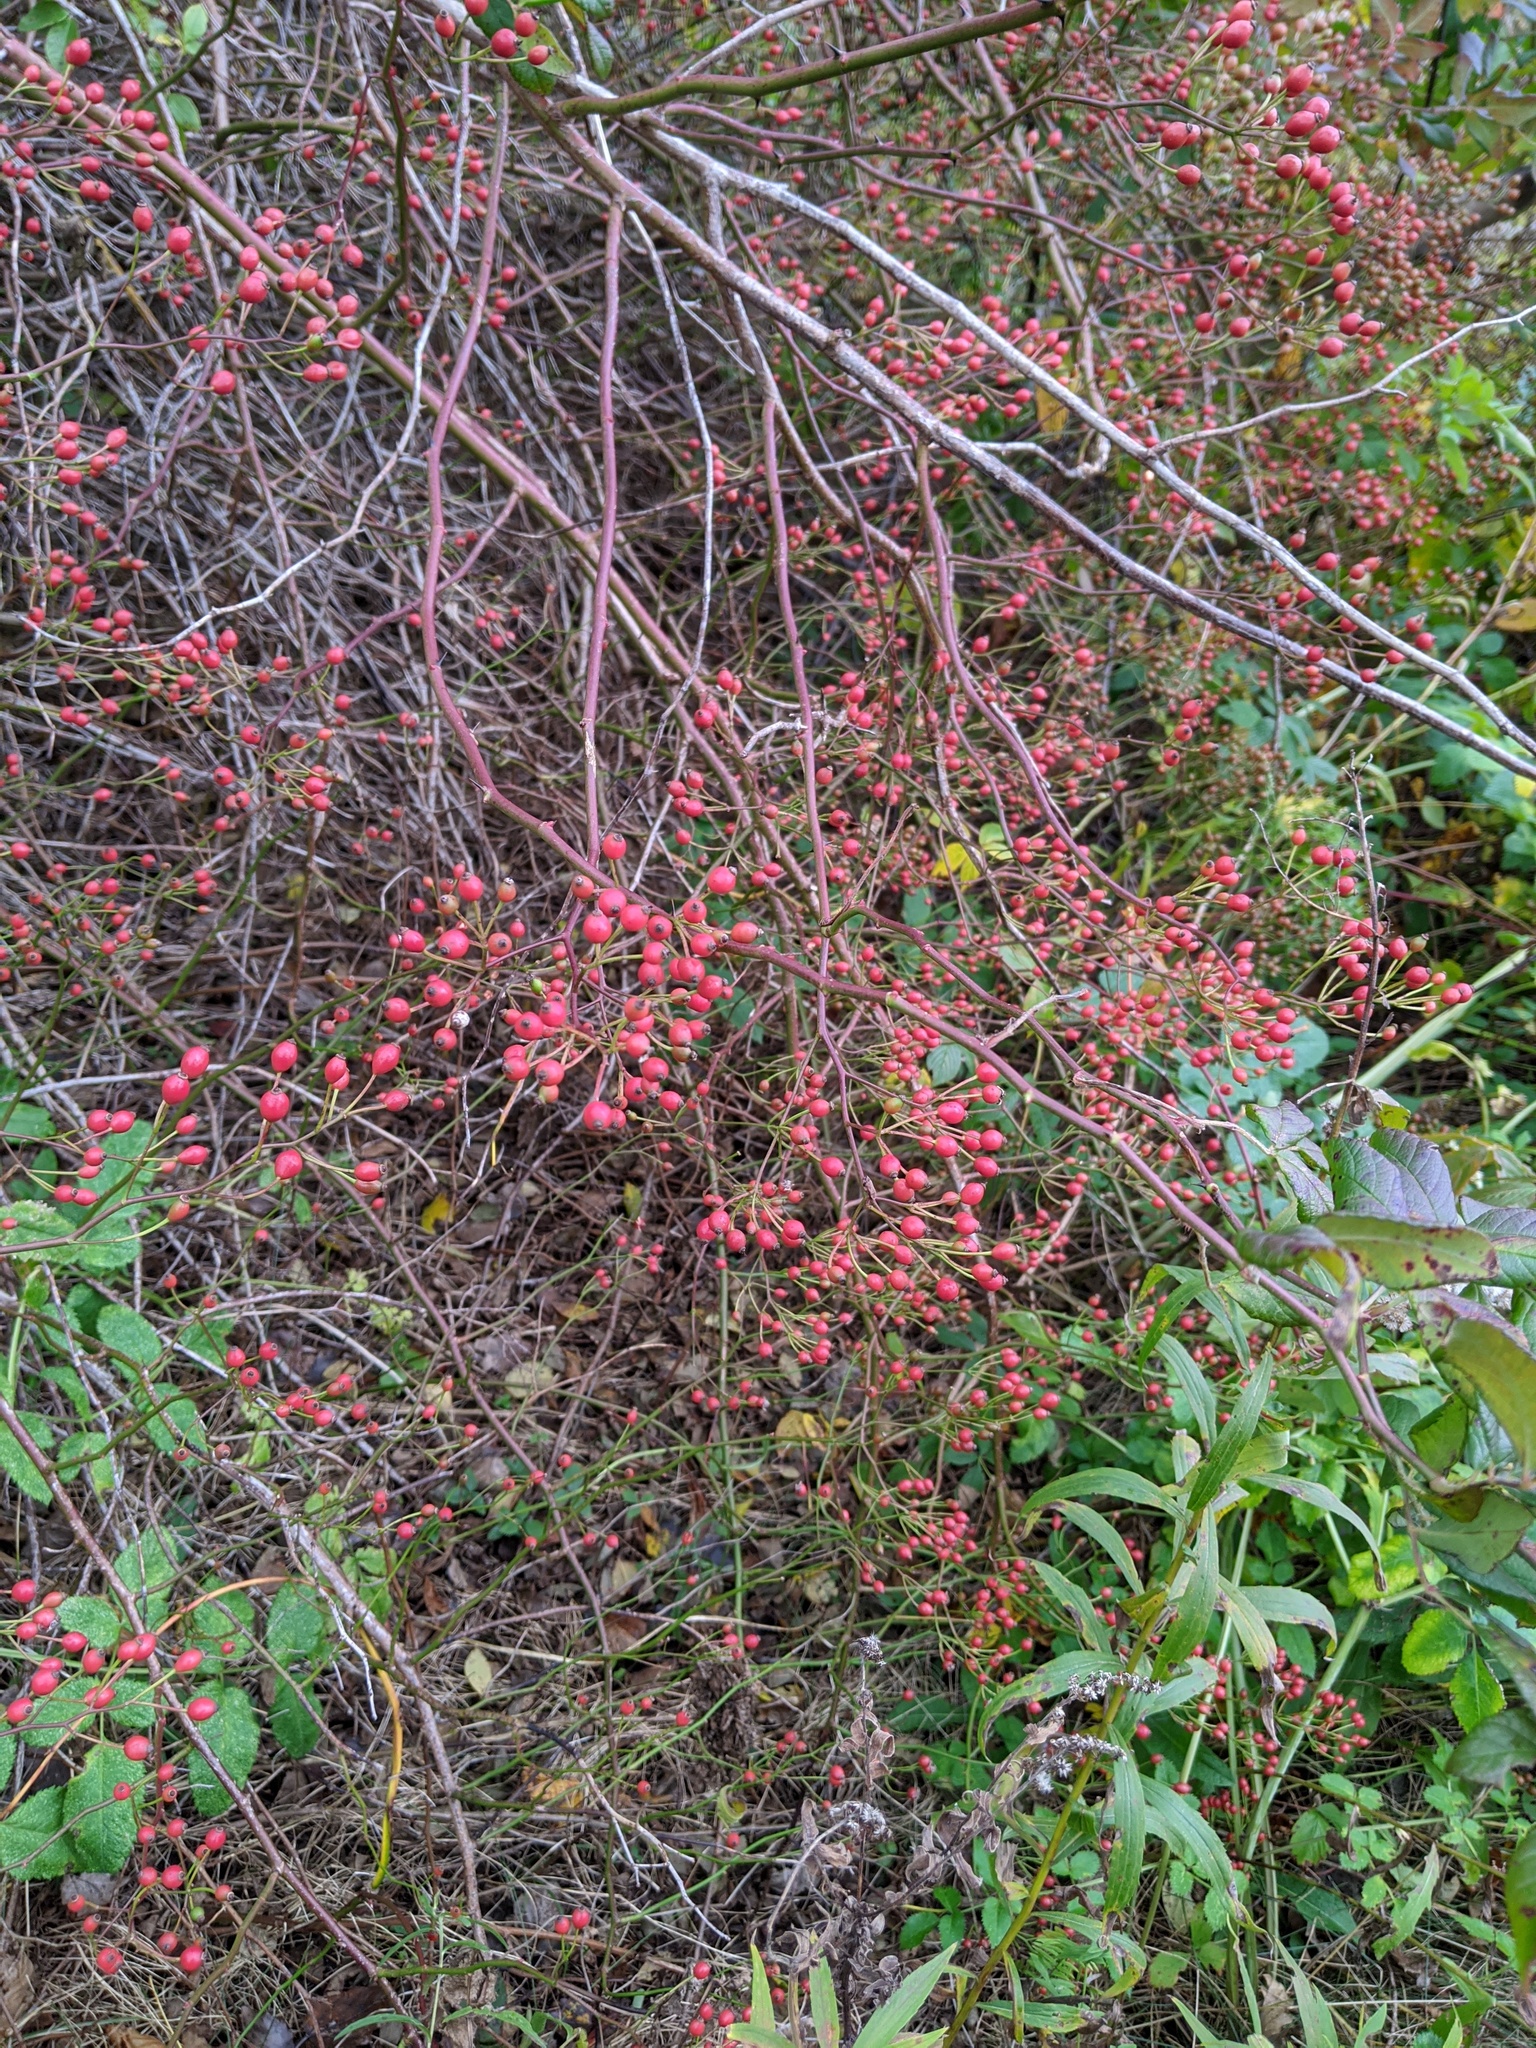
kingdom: Plantae
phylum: Tracheophyta
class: Magnoliopsida
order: Rosales
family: Rosaceae
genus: Rosa
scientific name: Rosa multiflora
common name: Multiflora rose
